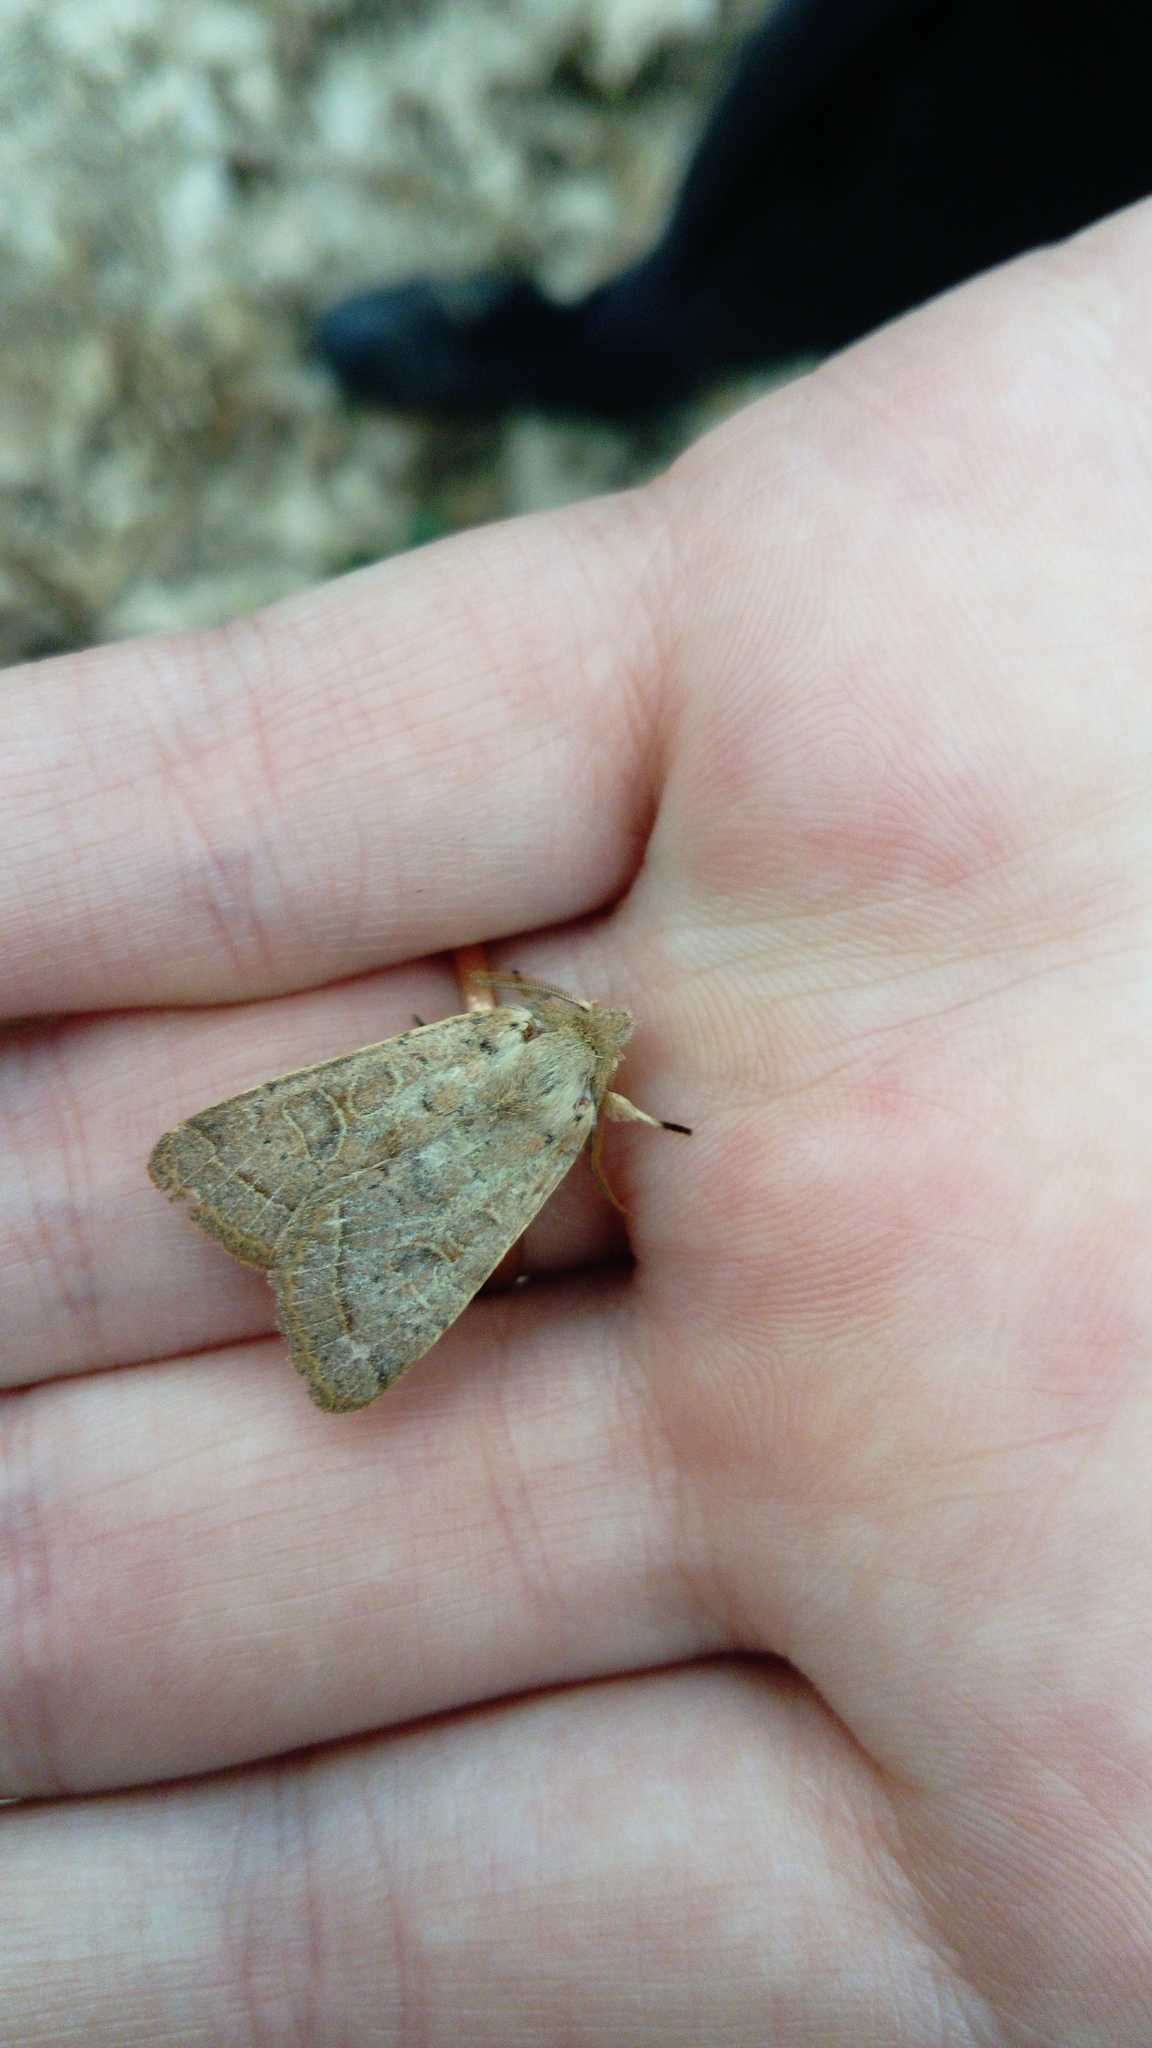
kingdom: Animalia
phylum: Arthropoda
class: Insecta
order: Lepidoptera
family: Noctuidae
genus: Orthosia
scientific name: Orthosia cerasi
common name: Common quaker
